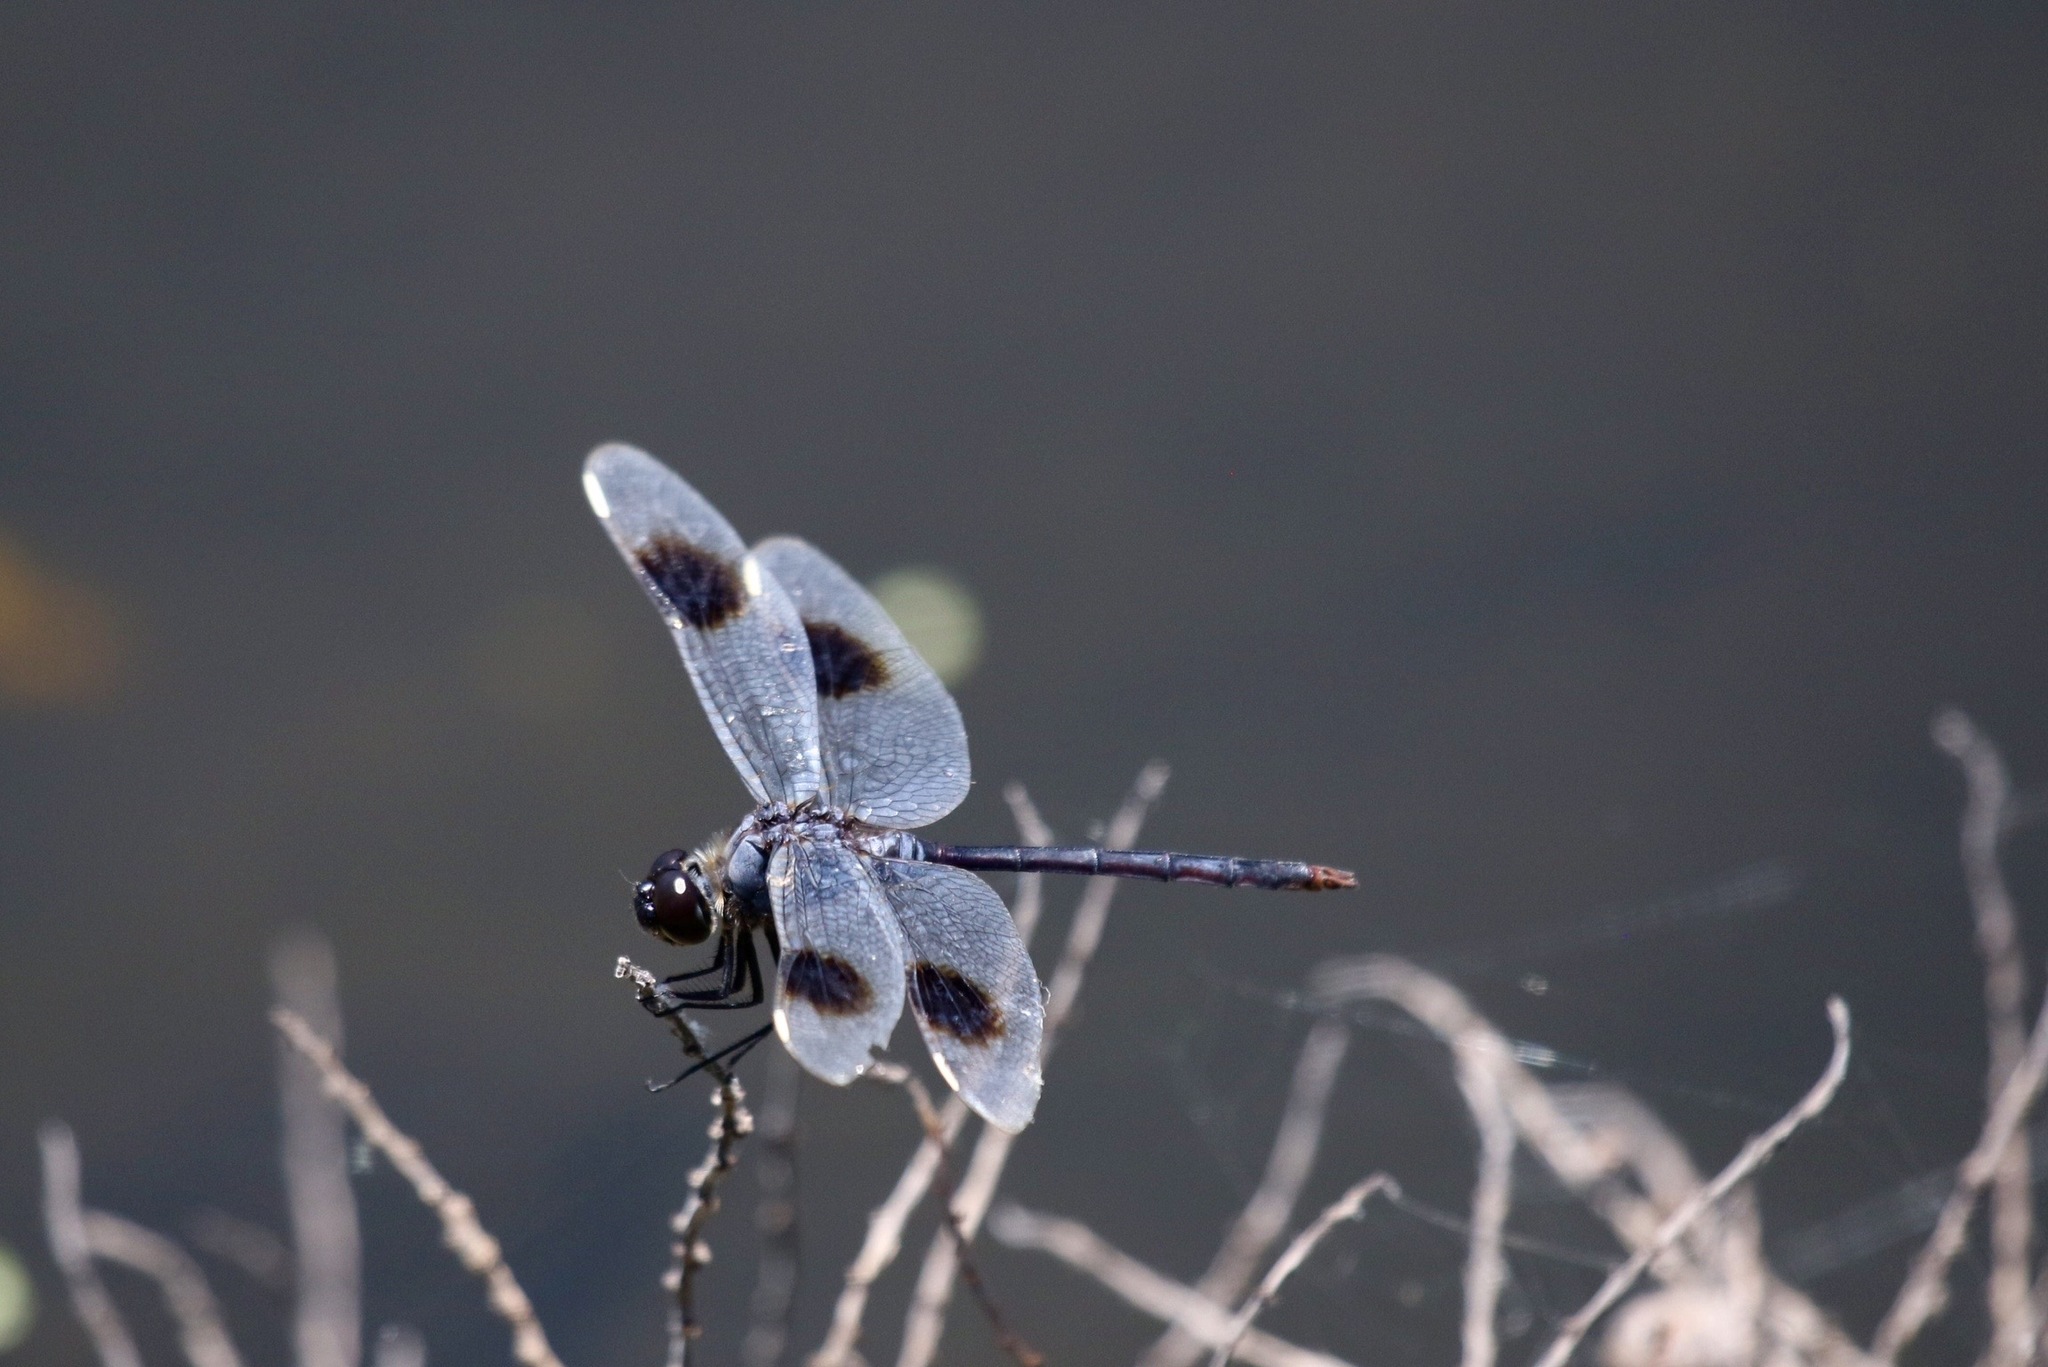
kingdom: Animalia
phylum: Arthropoda
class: Insecta
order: Odonata
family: Libellulidae
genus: Brachymesia
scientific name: Brachymesia gravida
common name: Four-spotted pennant
